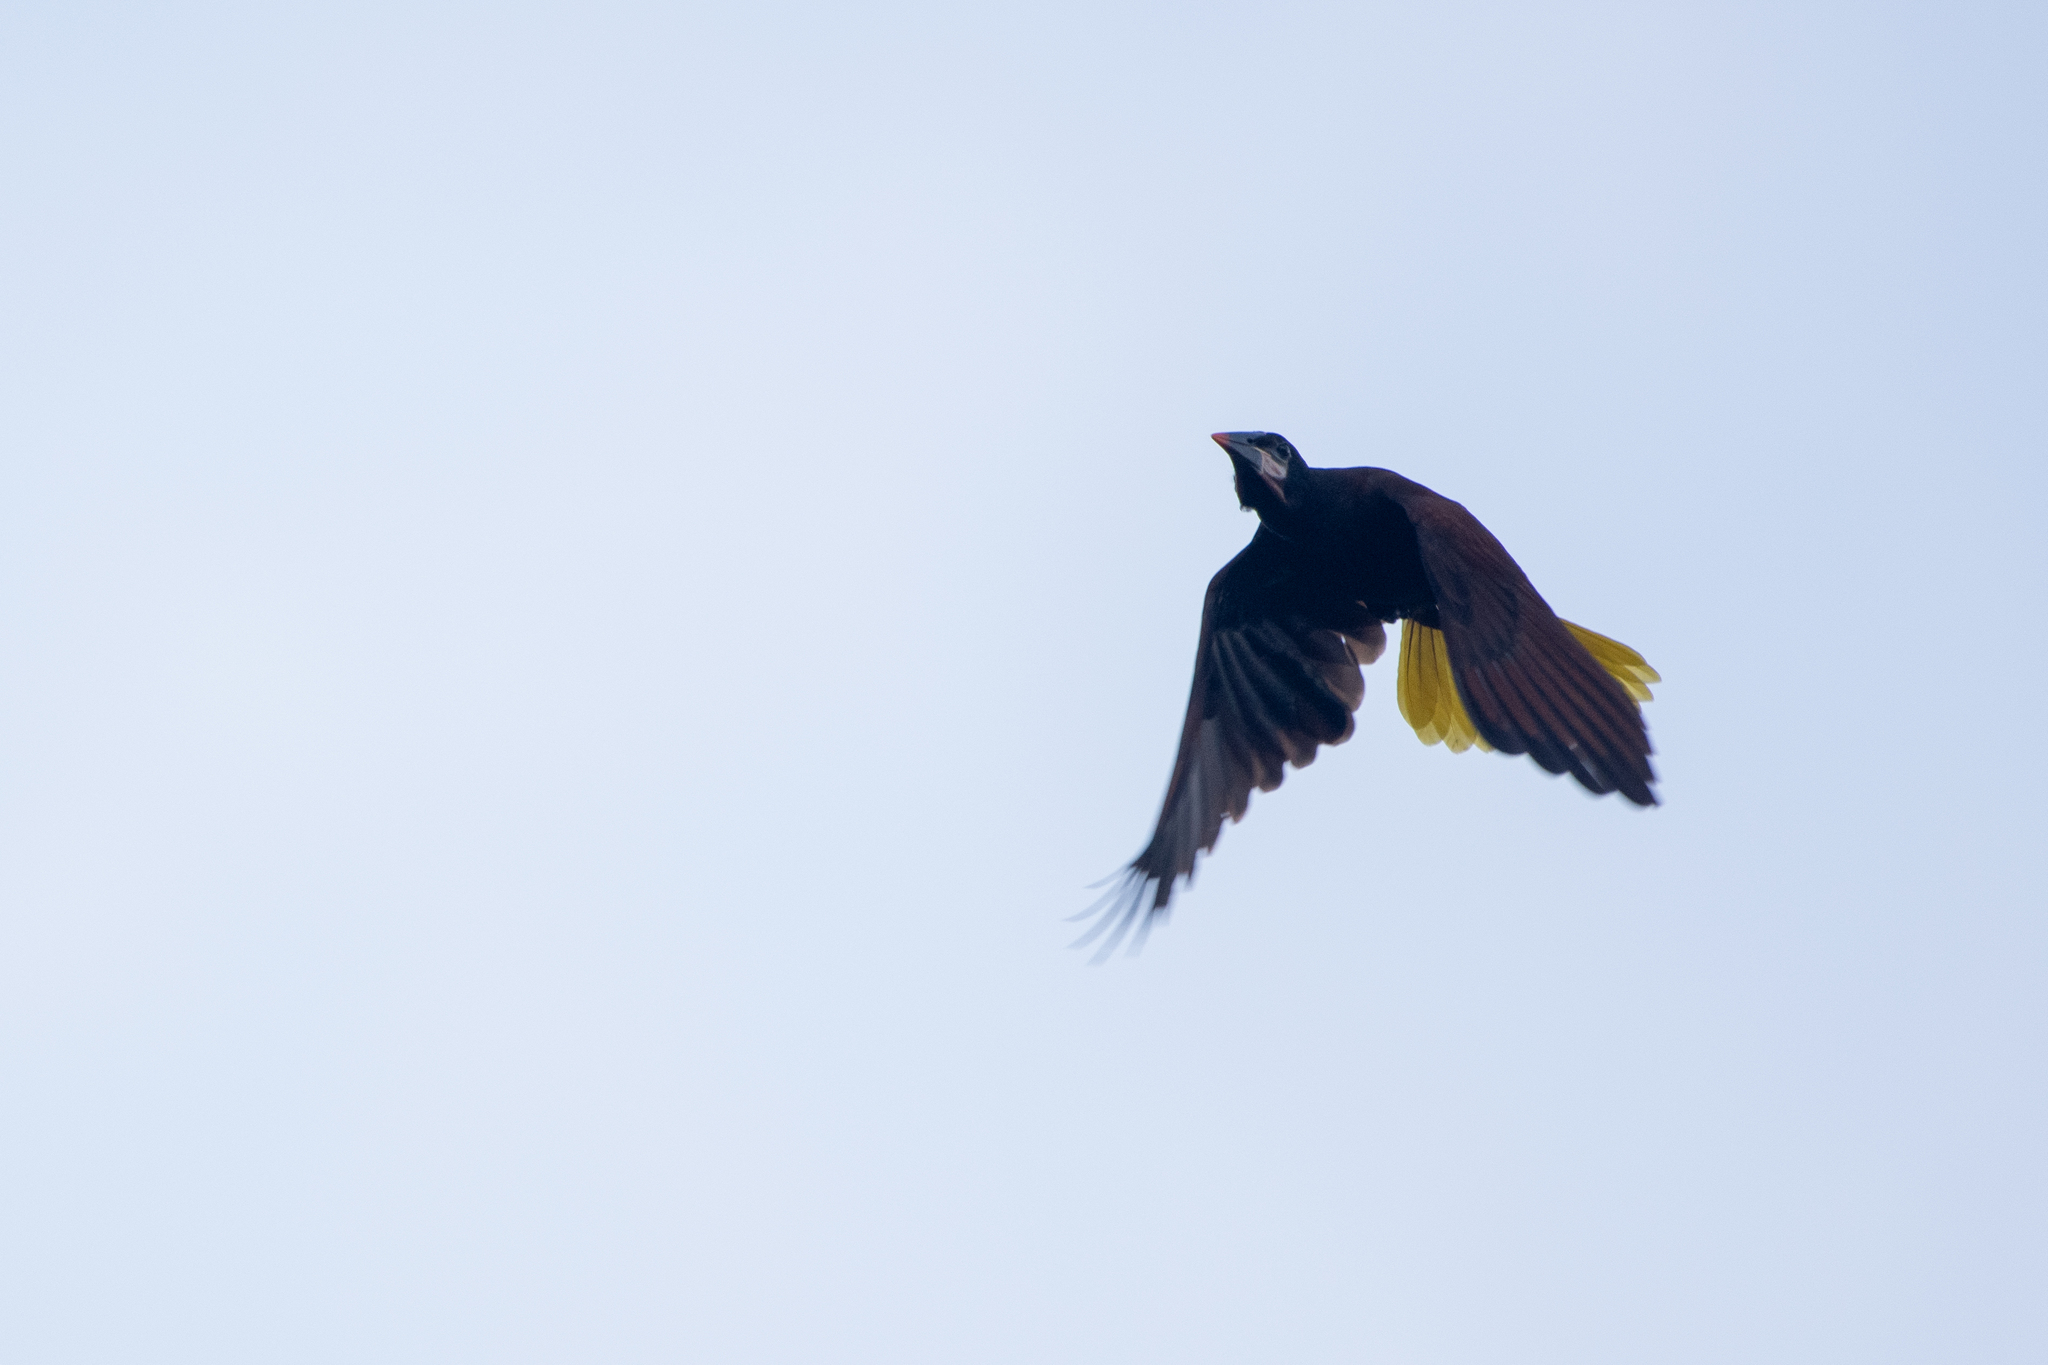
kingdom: Animalia
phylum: Chordata
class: Aves
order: Passeriformes
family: Icteridae
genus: Psarocolius
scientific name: Psarocolius montezuma
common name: Montezuma oropendola
